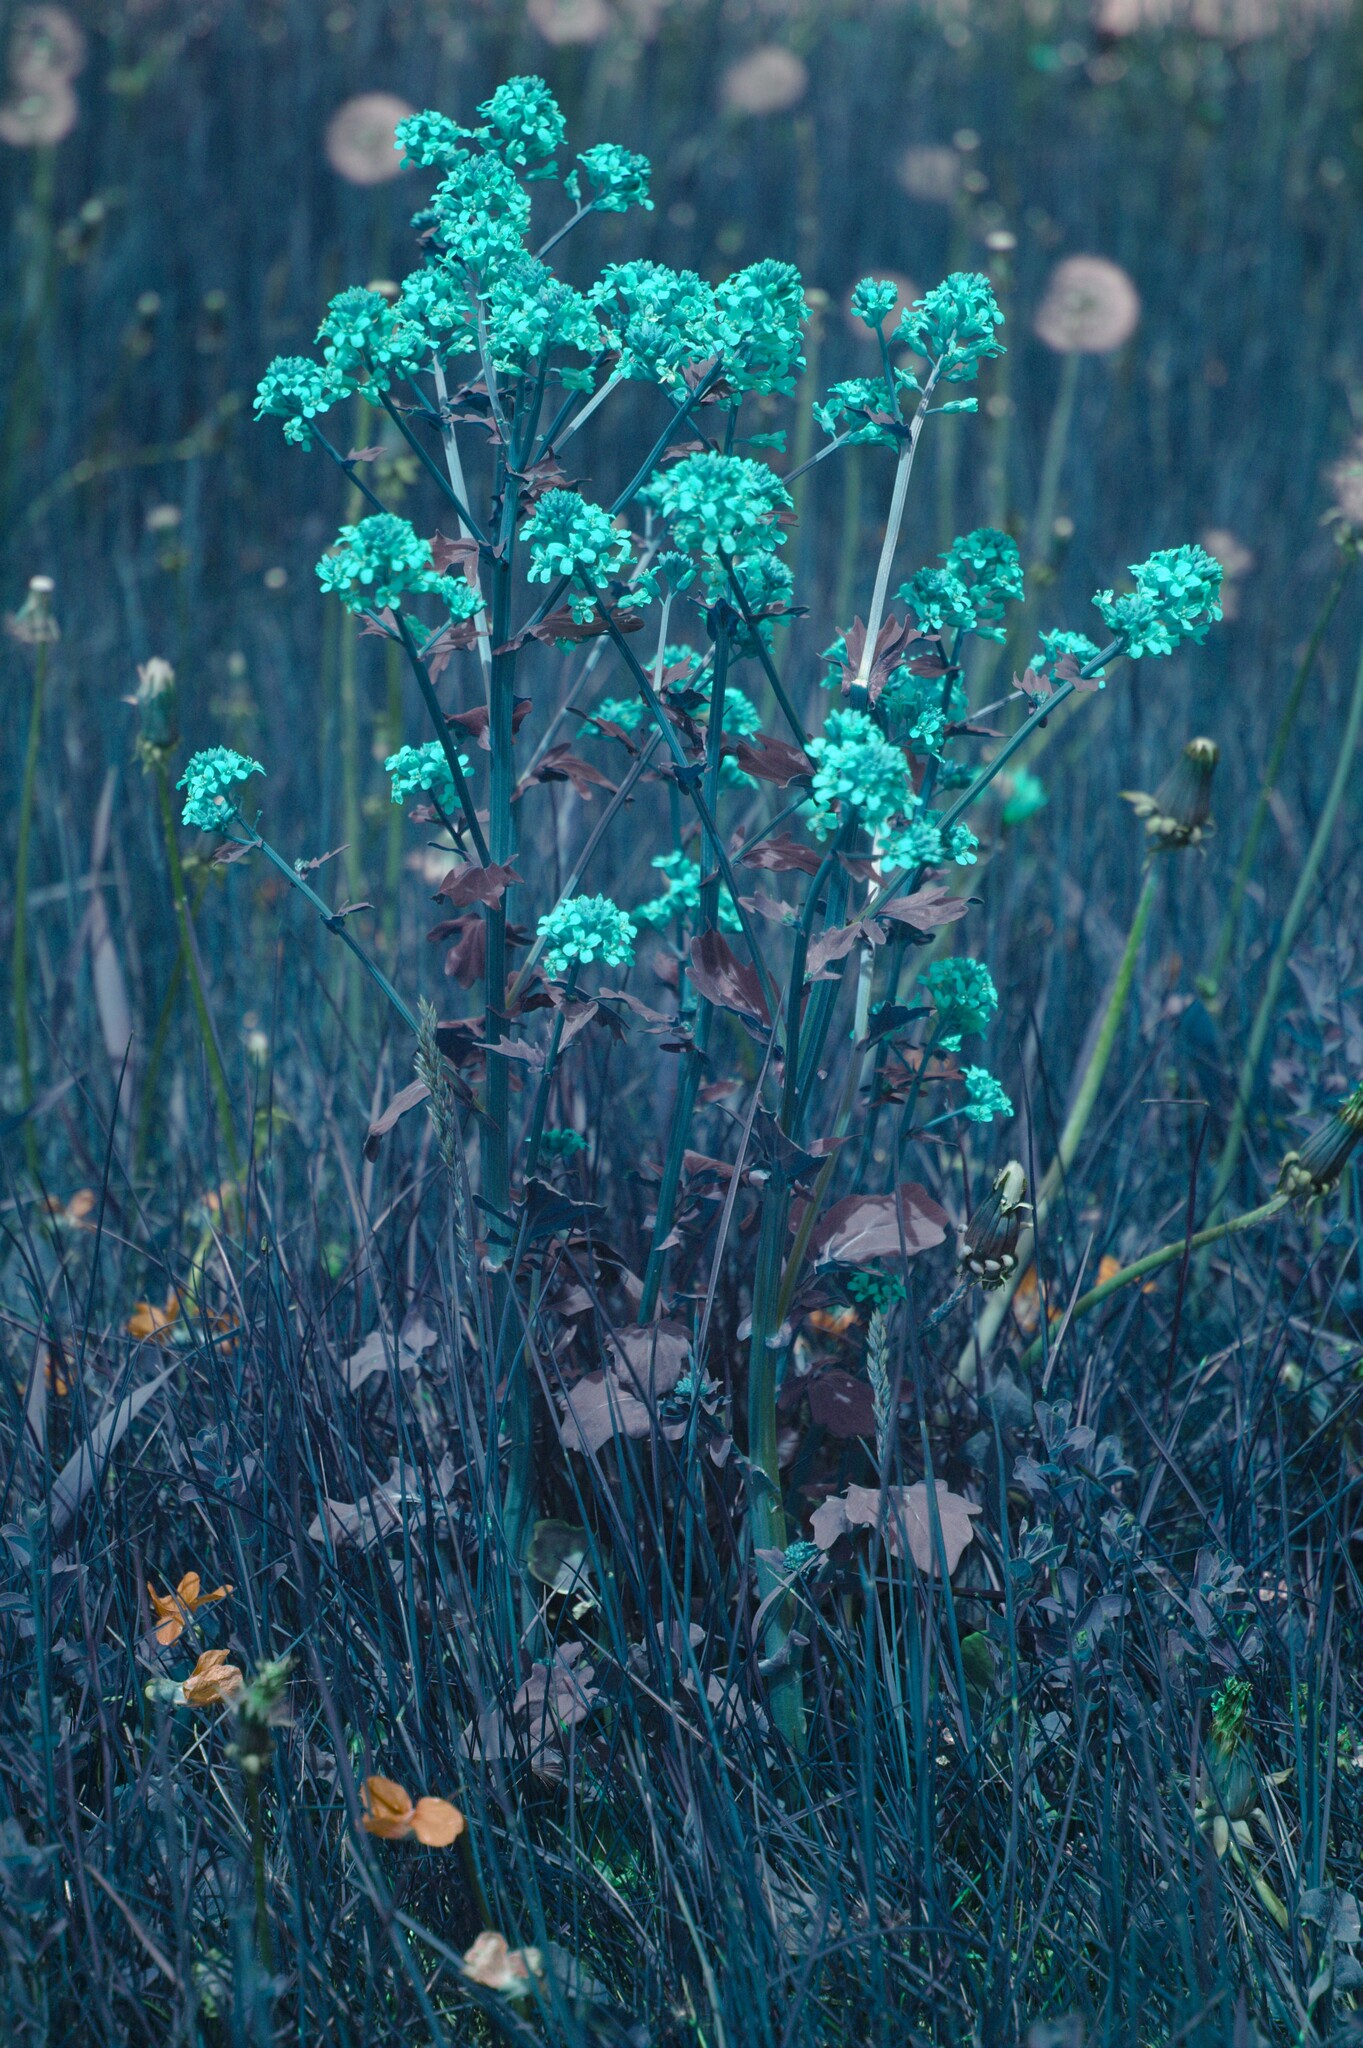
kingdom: Plantae
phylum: Tracheophyta
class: Magnoliopsida
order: Brassicales
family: Brassicaceae
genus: Barbarea
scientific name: Barbarea vulgaris
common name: Cressy-greens
